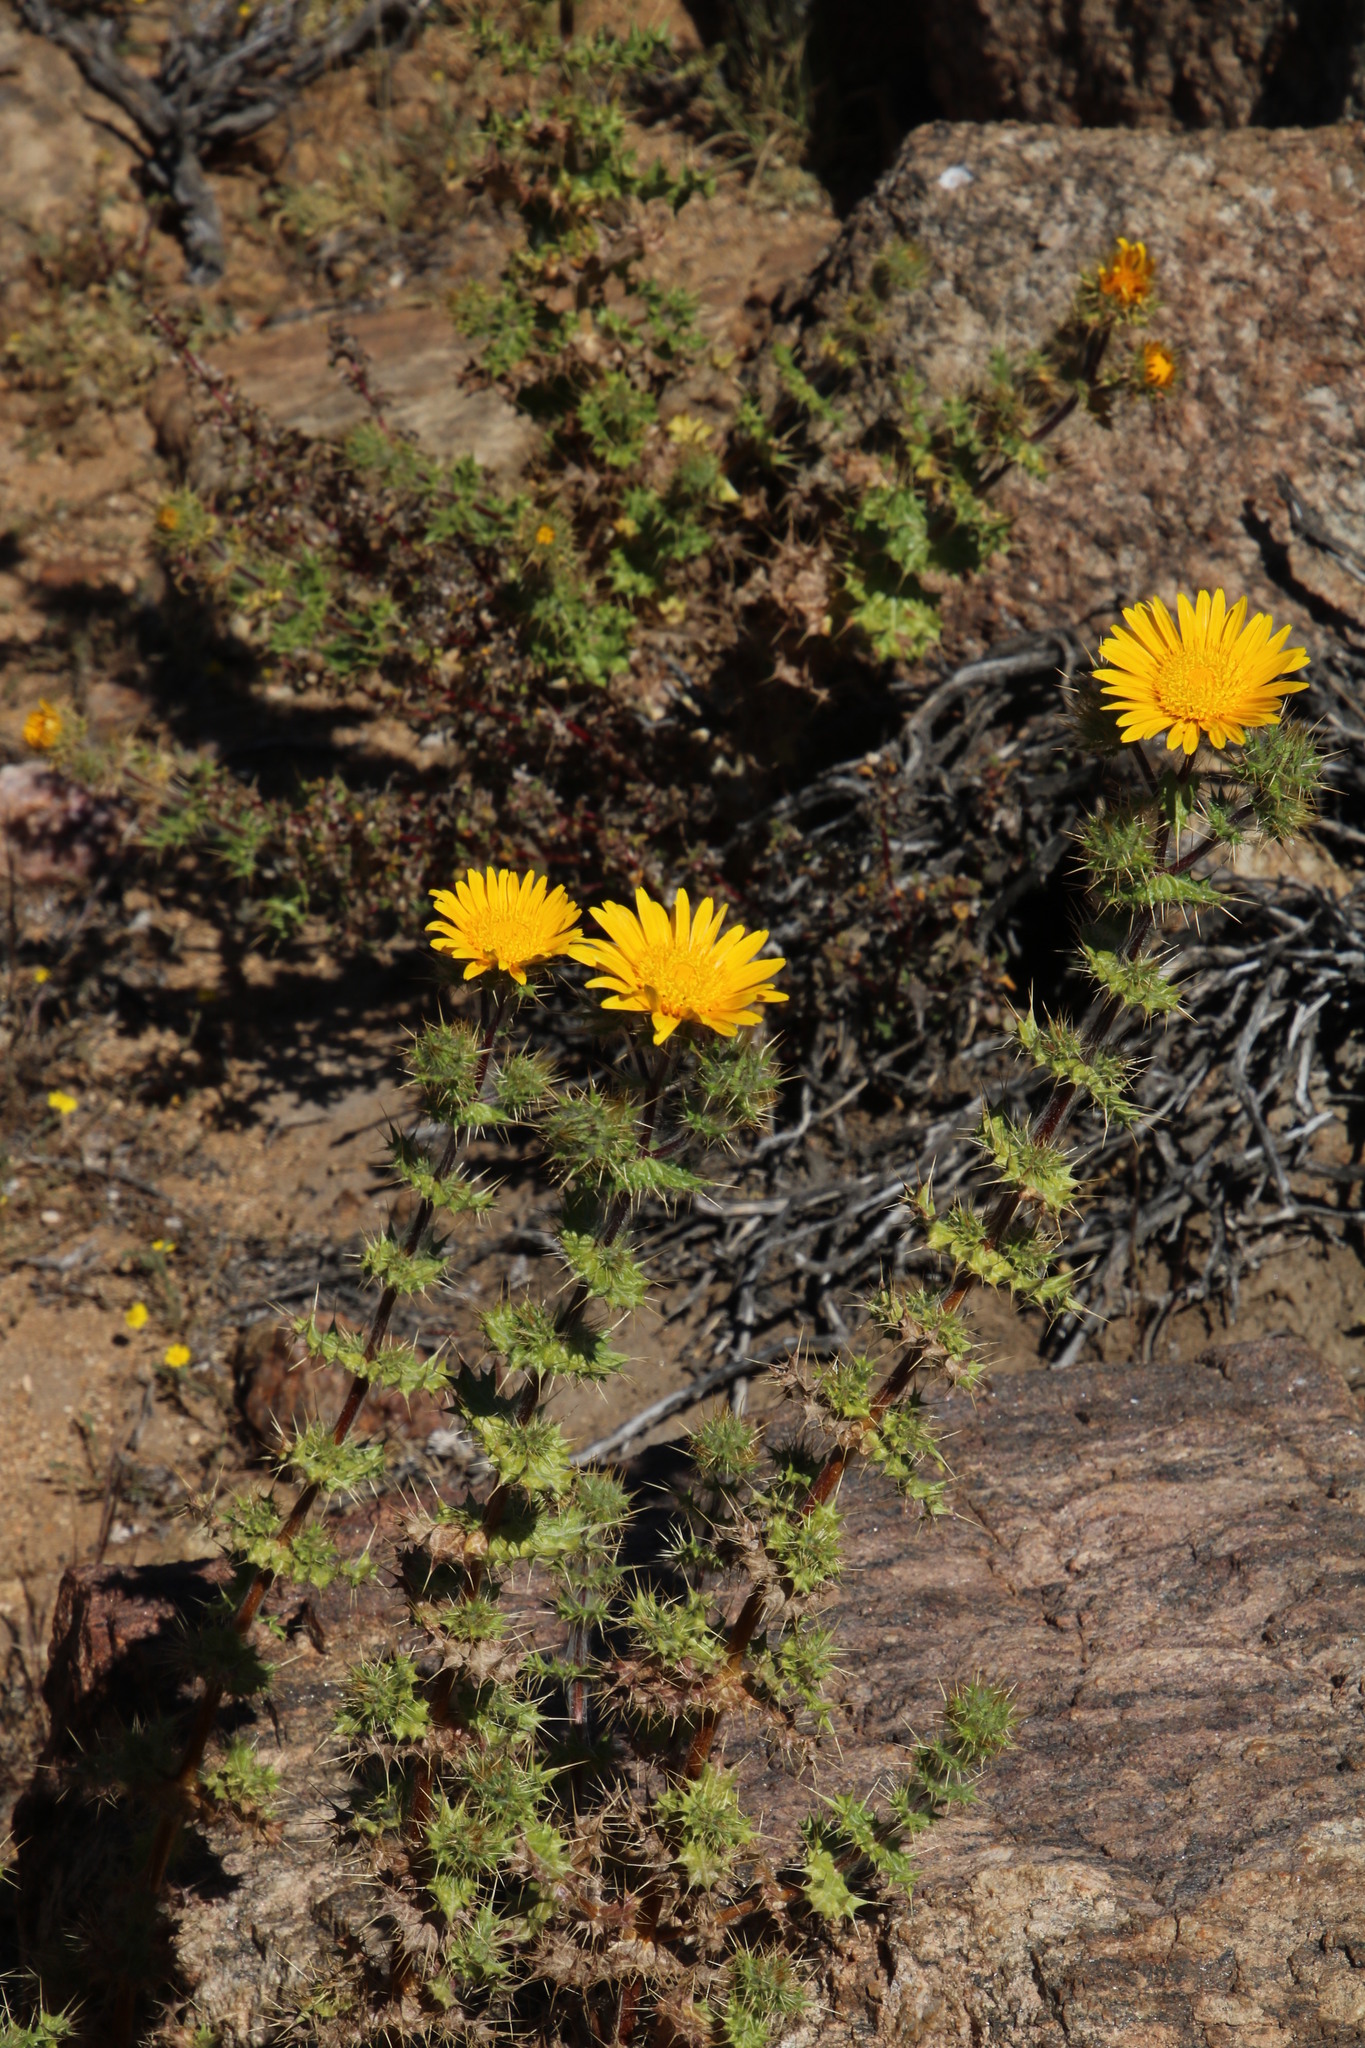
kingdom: Plantae
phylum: Tracheophyta
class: Magnoliopsida
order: Asterales
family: Asteraceae
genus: Berkheya
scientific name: Berkheya spinosissima
